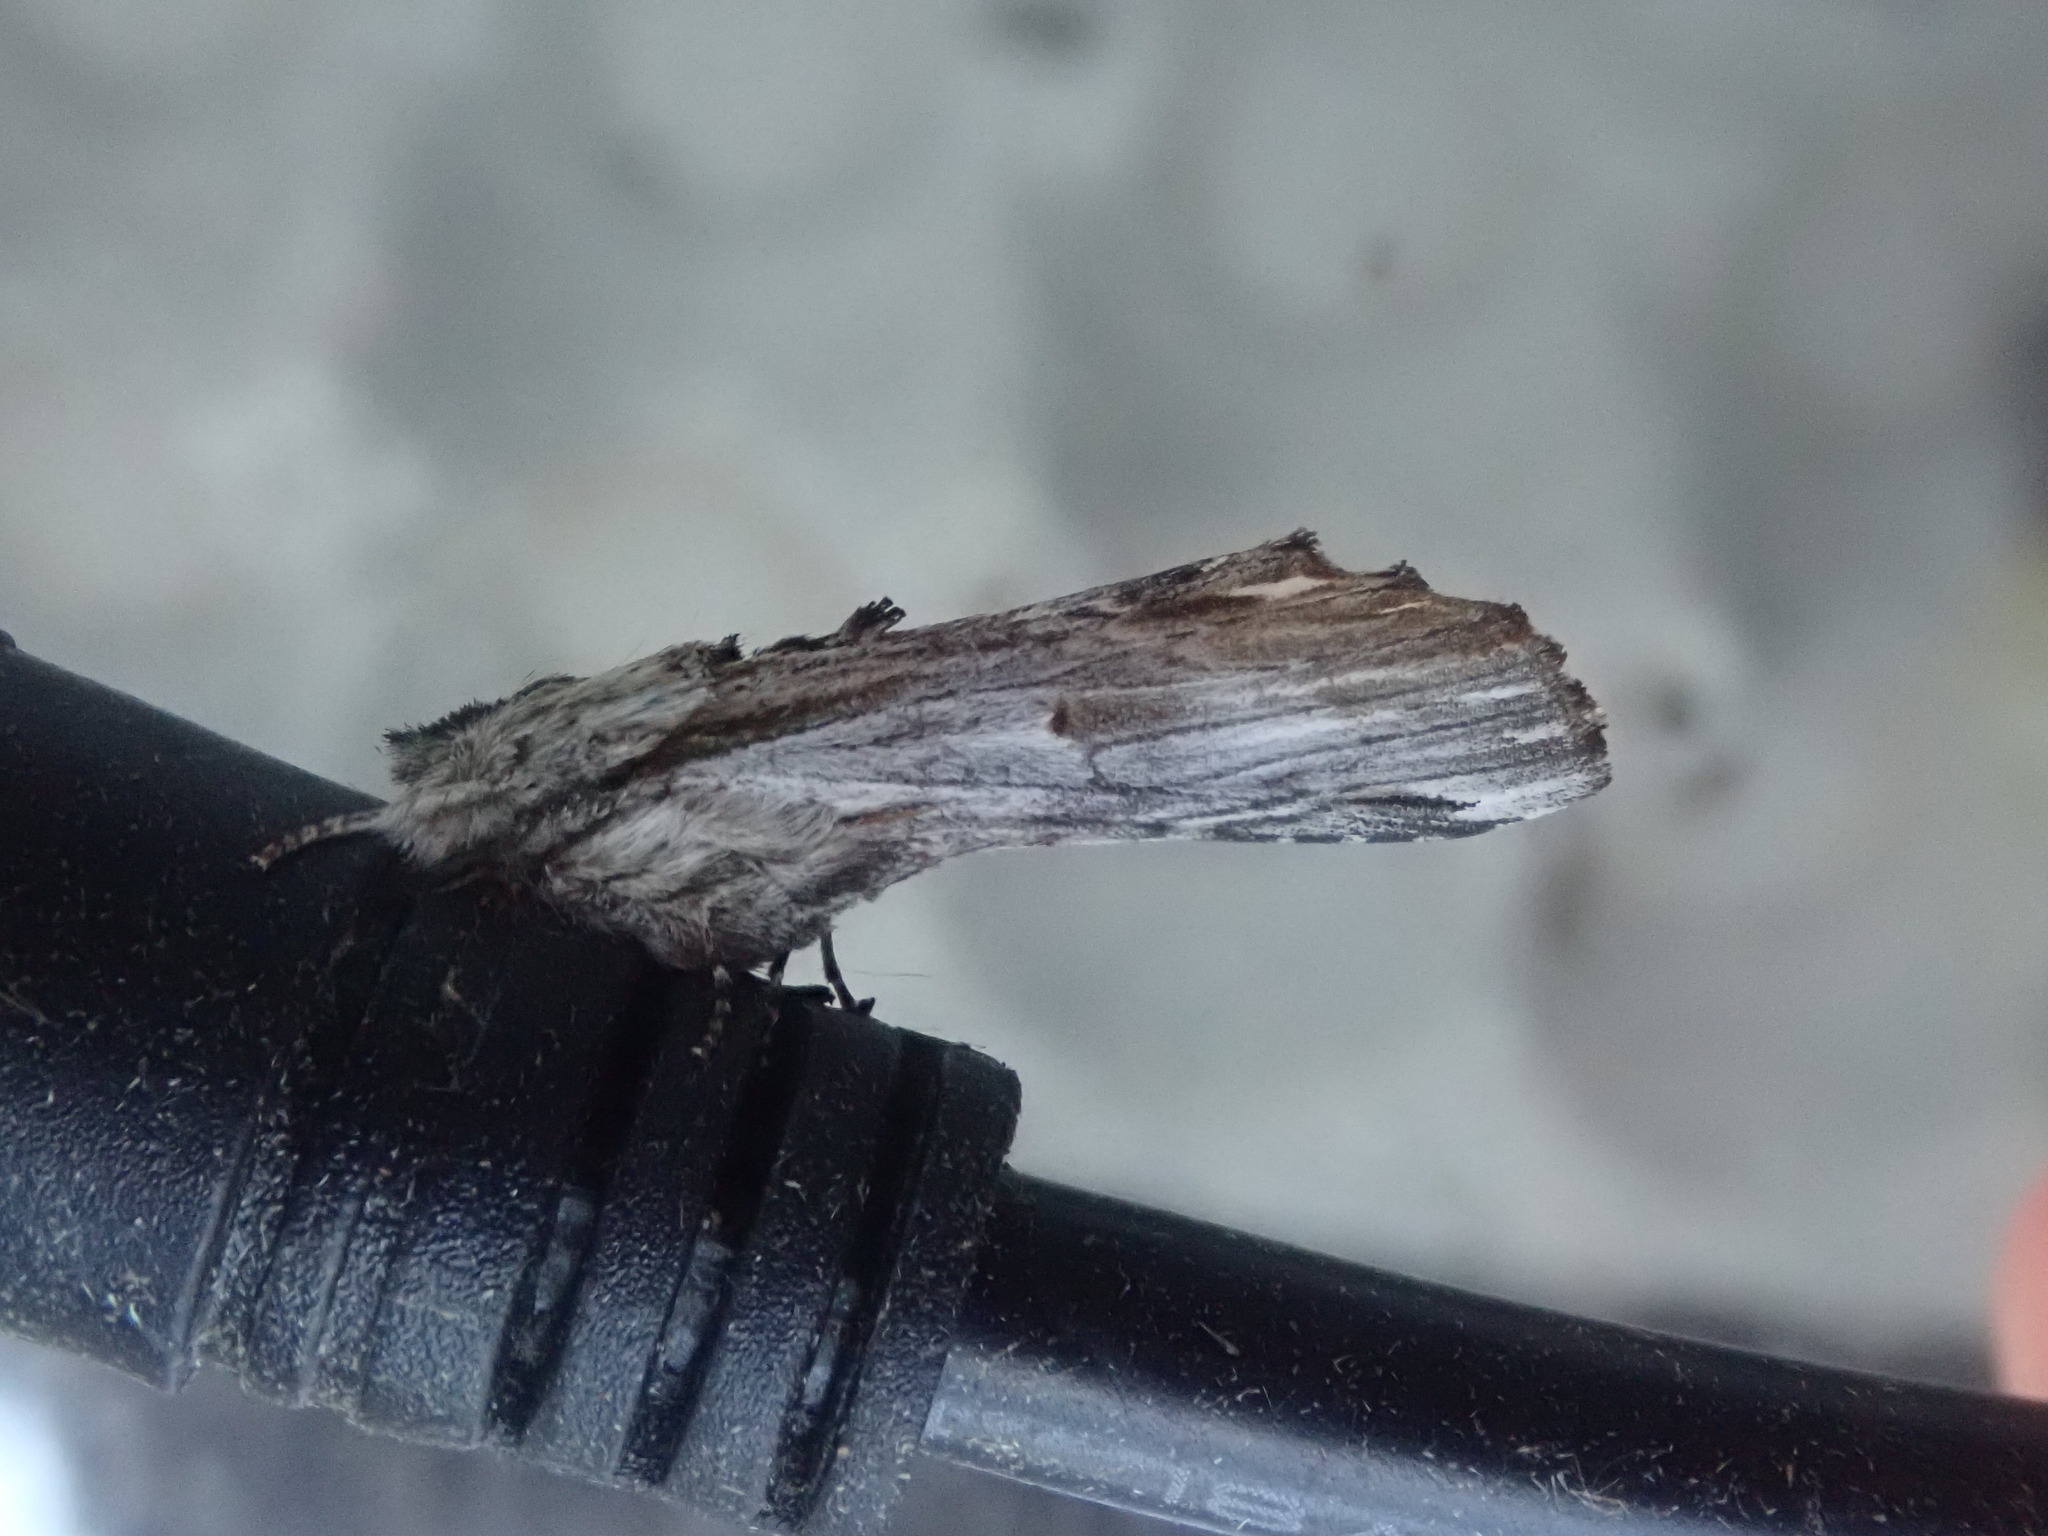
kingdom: Animalia
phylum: Arthropoda
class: Insecta
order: Lepidoptera
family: Notodontidae
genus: Oligocentria
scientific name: Oligocentria Ianassa lignicolor
